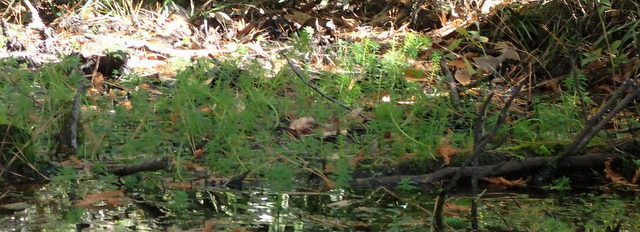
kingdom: Plantae
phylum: Tracheophyta
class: Magnoliopsida
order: Saxifragales
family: Haloragaceae
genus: Myriophyllum
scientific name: Myriophyllum aquaticum
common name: Parrot's feather
